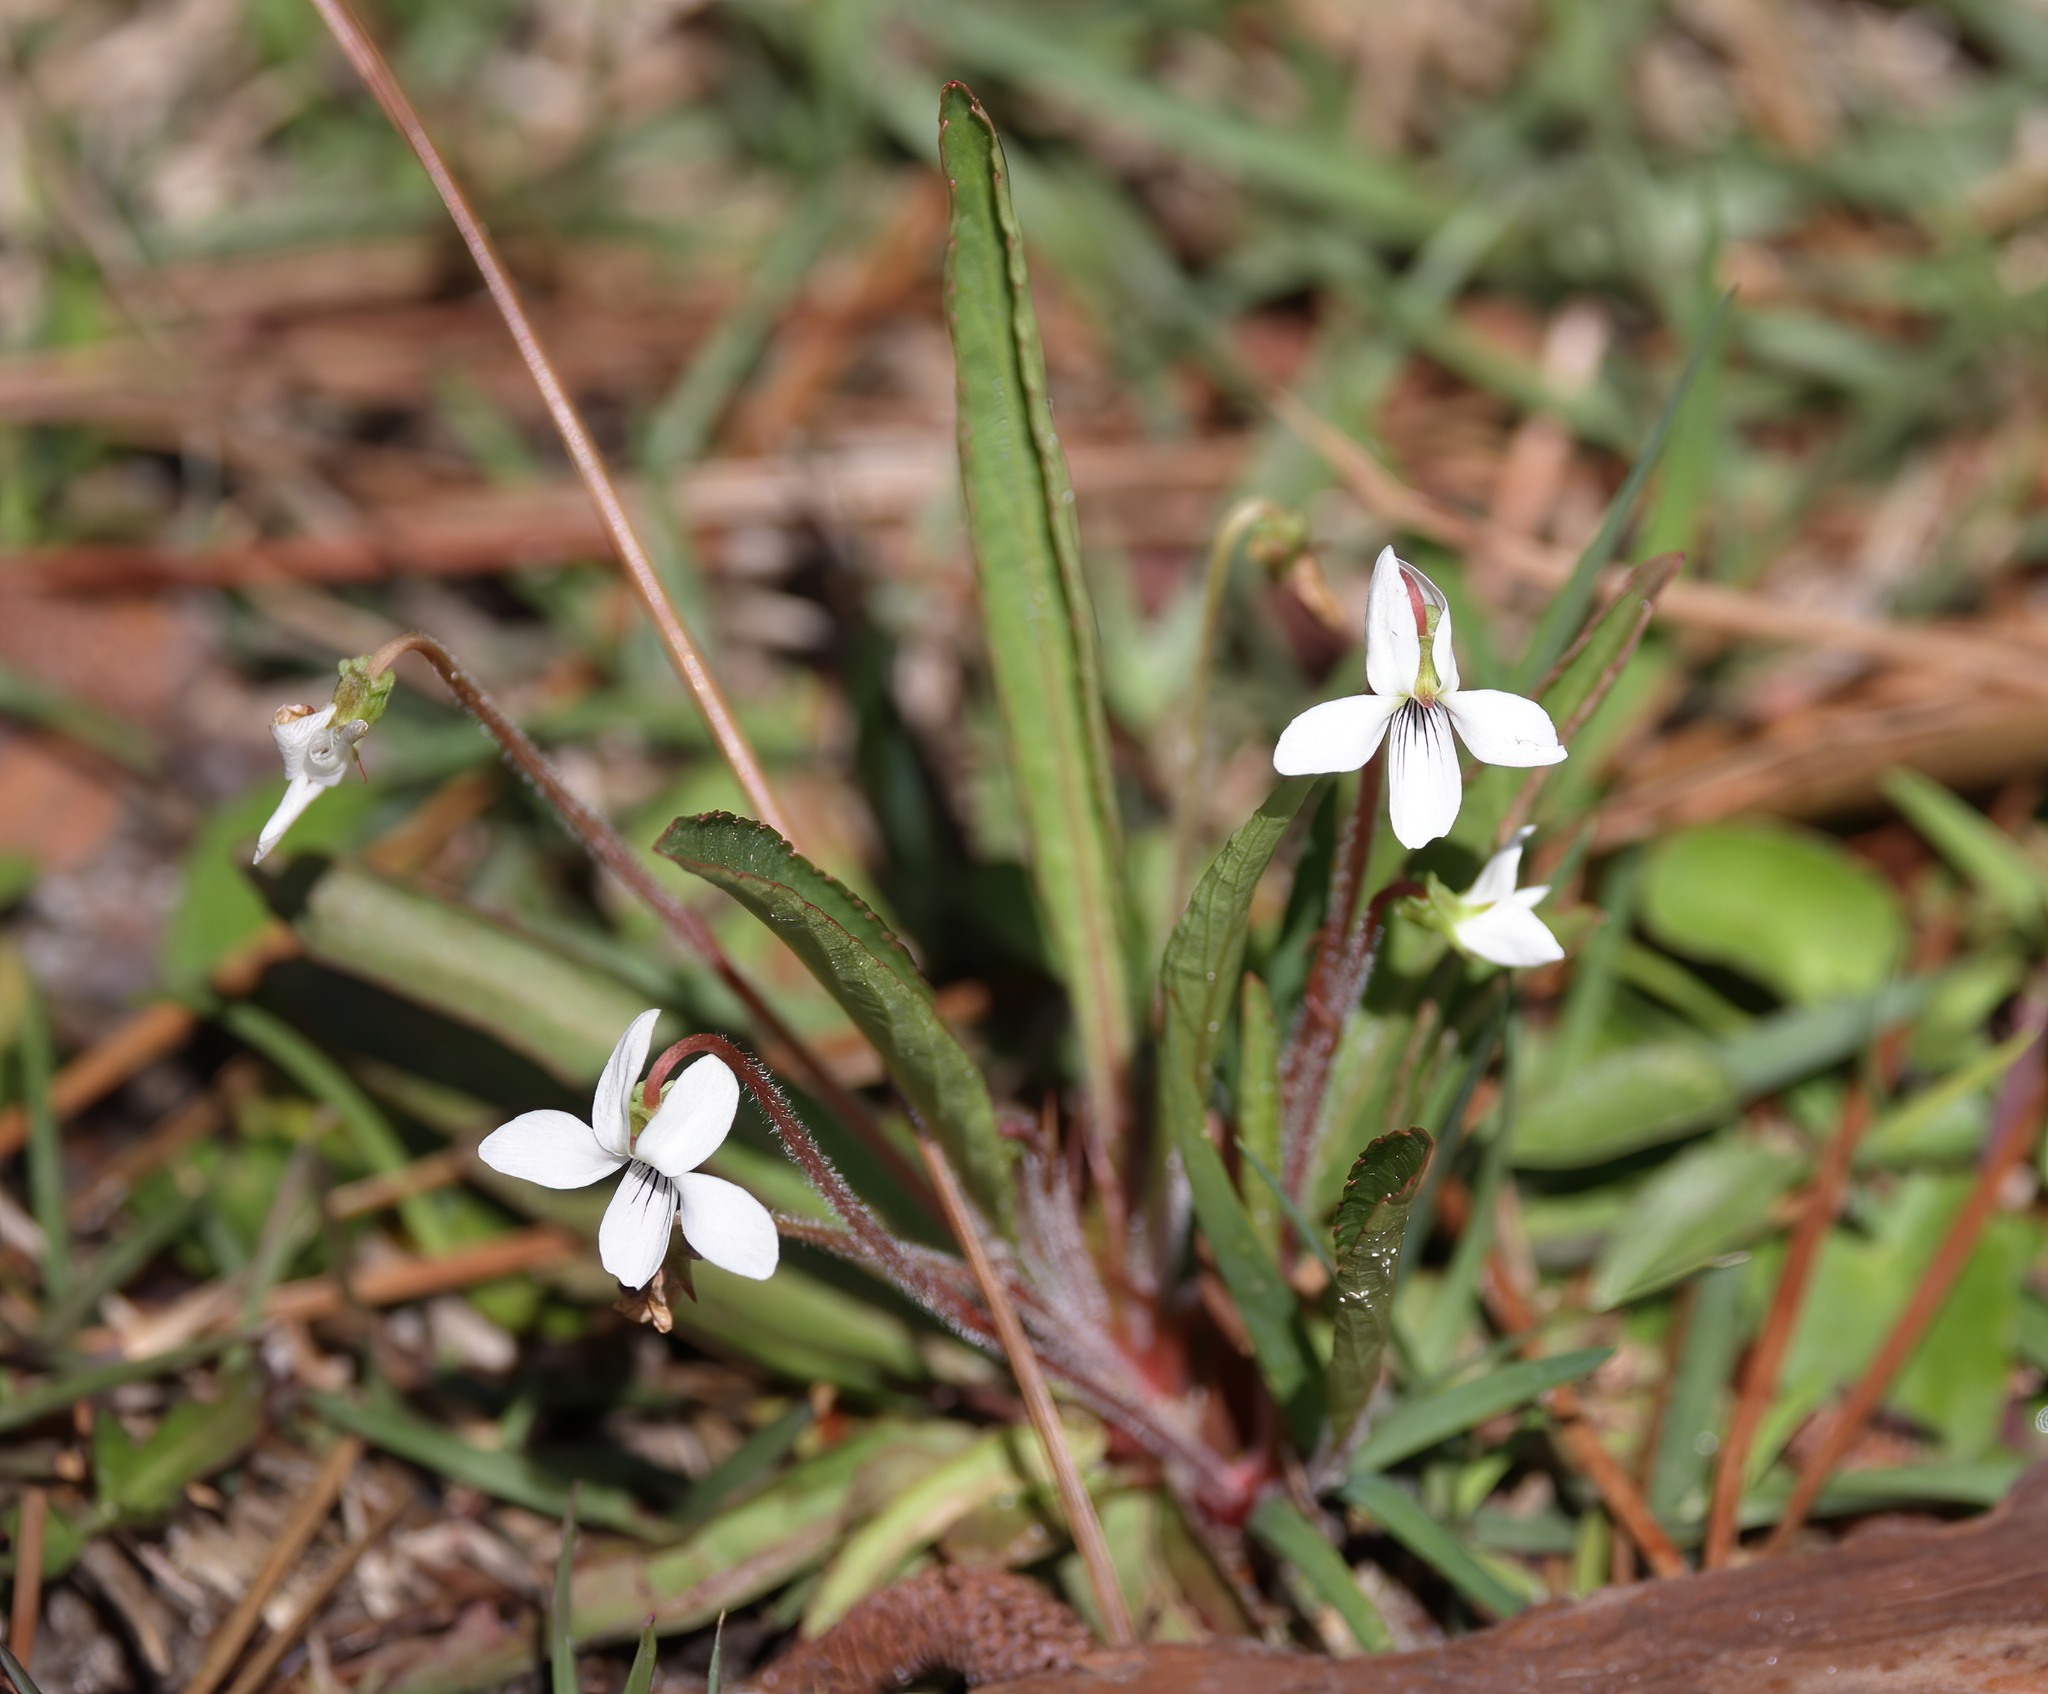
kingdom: Plantae
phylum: Tracheophyta
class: Magnoliopsida
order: Malpighiales
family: Violaceae
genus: Viola
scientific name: Viola lanceolata
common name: Bog white violet
